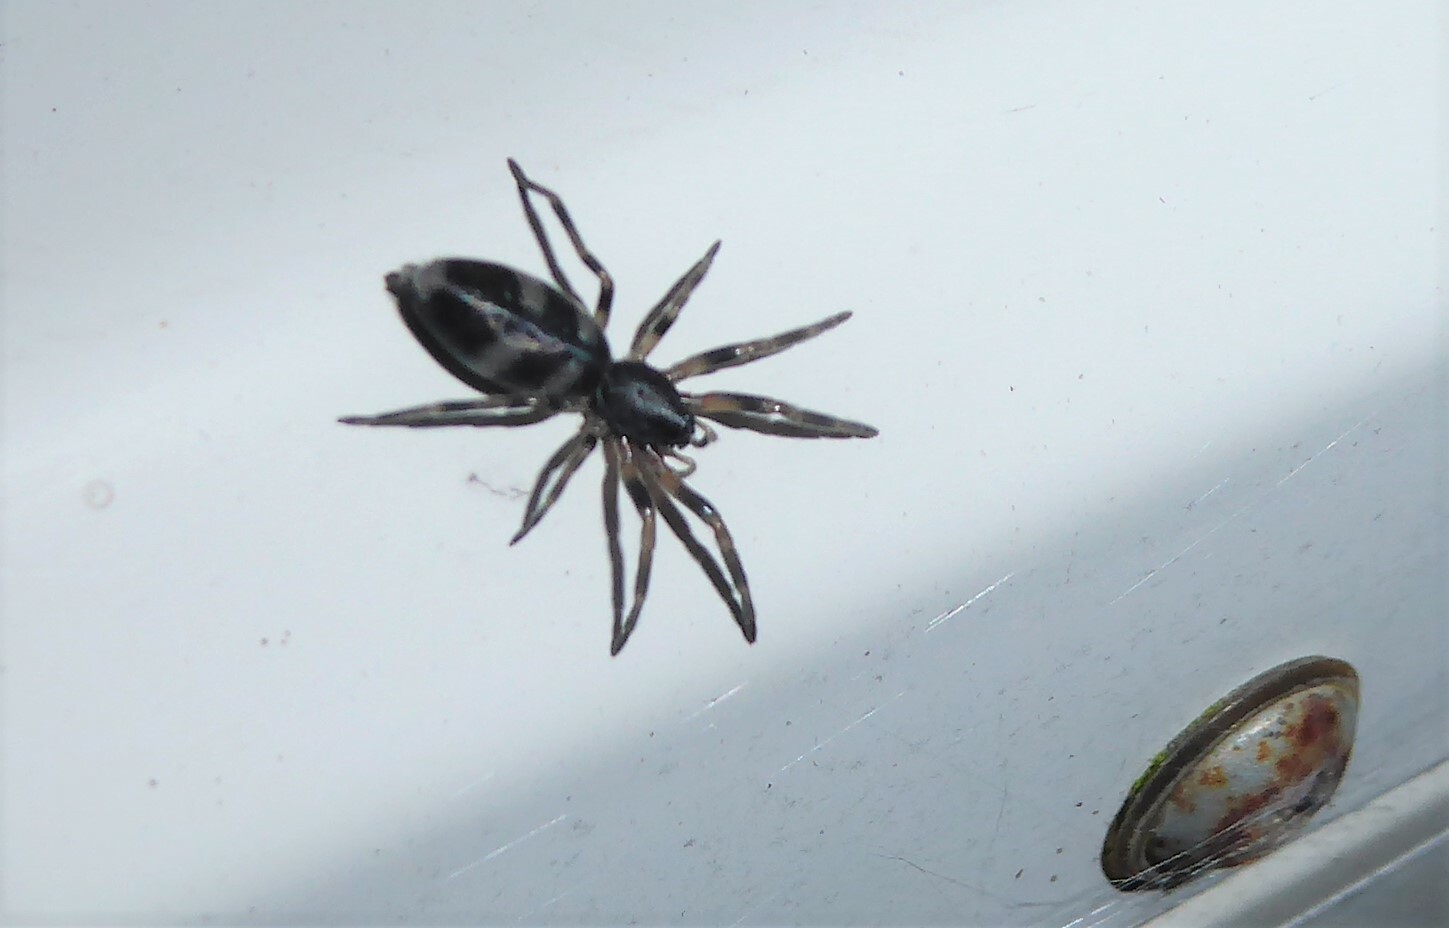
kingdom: Animalia
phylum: Arthropoda
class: Arachnida
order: Araneae
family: Lamponidae
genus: Lampona
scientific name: Lampona cylindrata
